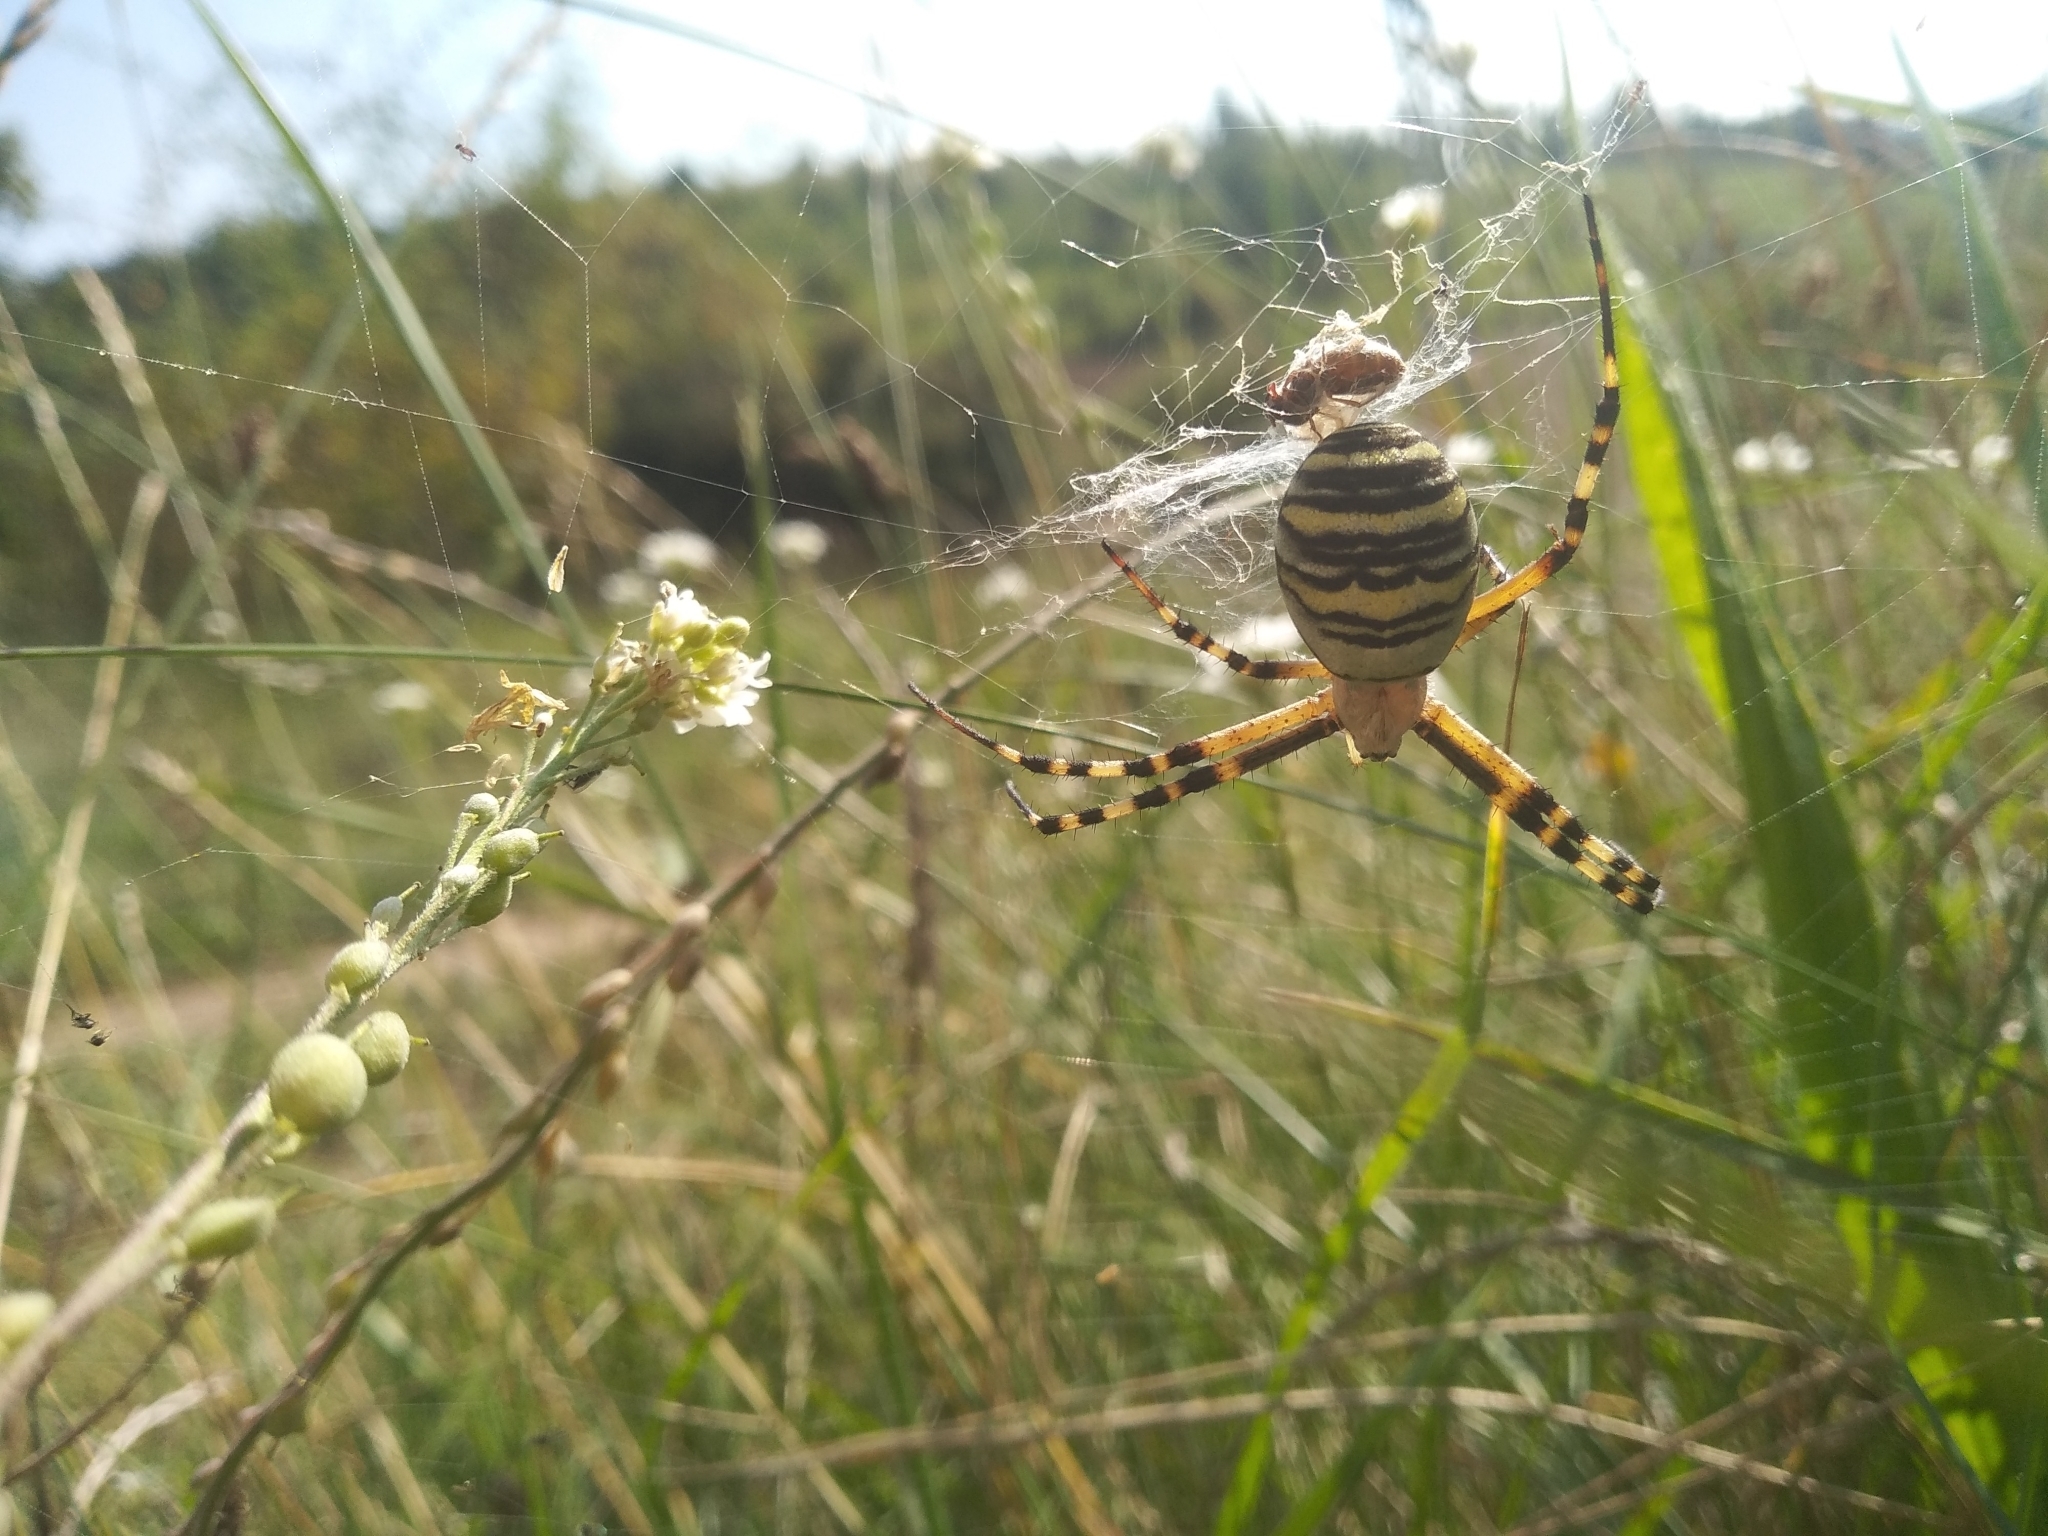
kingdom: Animalia
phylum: Arthropoda
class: Arachnida
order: Araneae
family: Araneidae
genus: Argiope
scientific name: Argiope bruennichi
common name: Wasp spider
